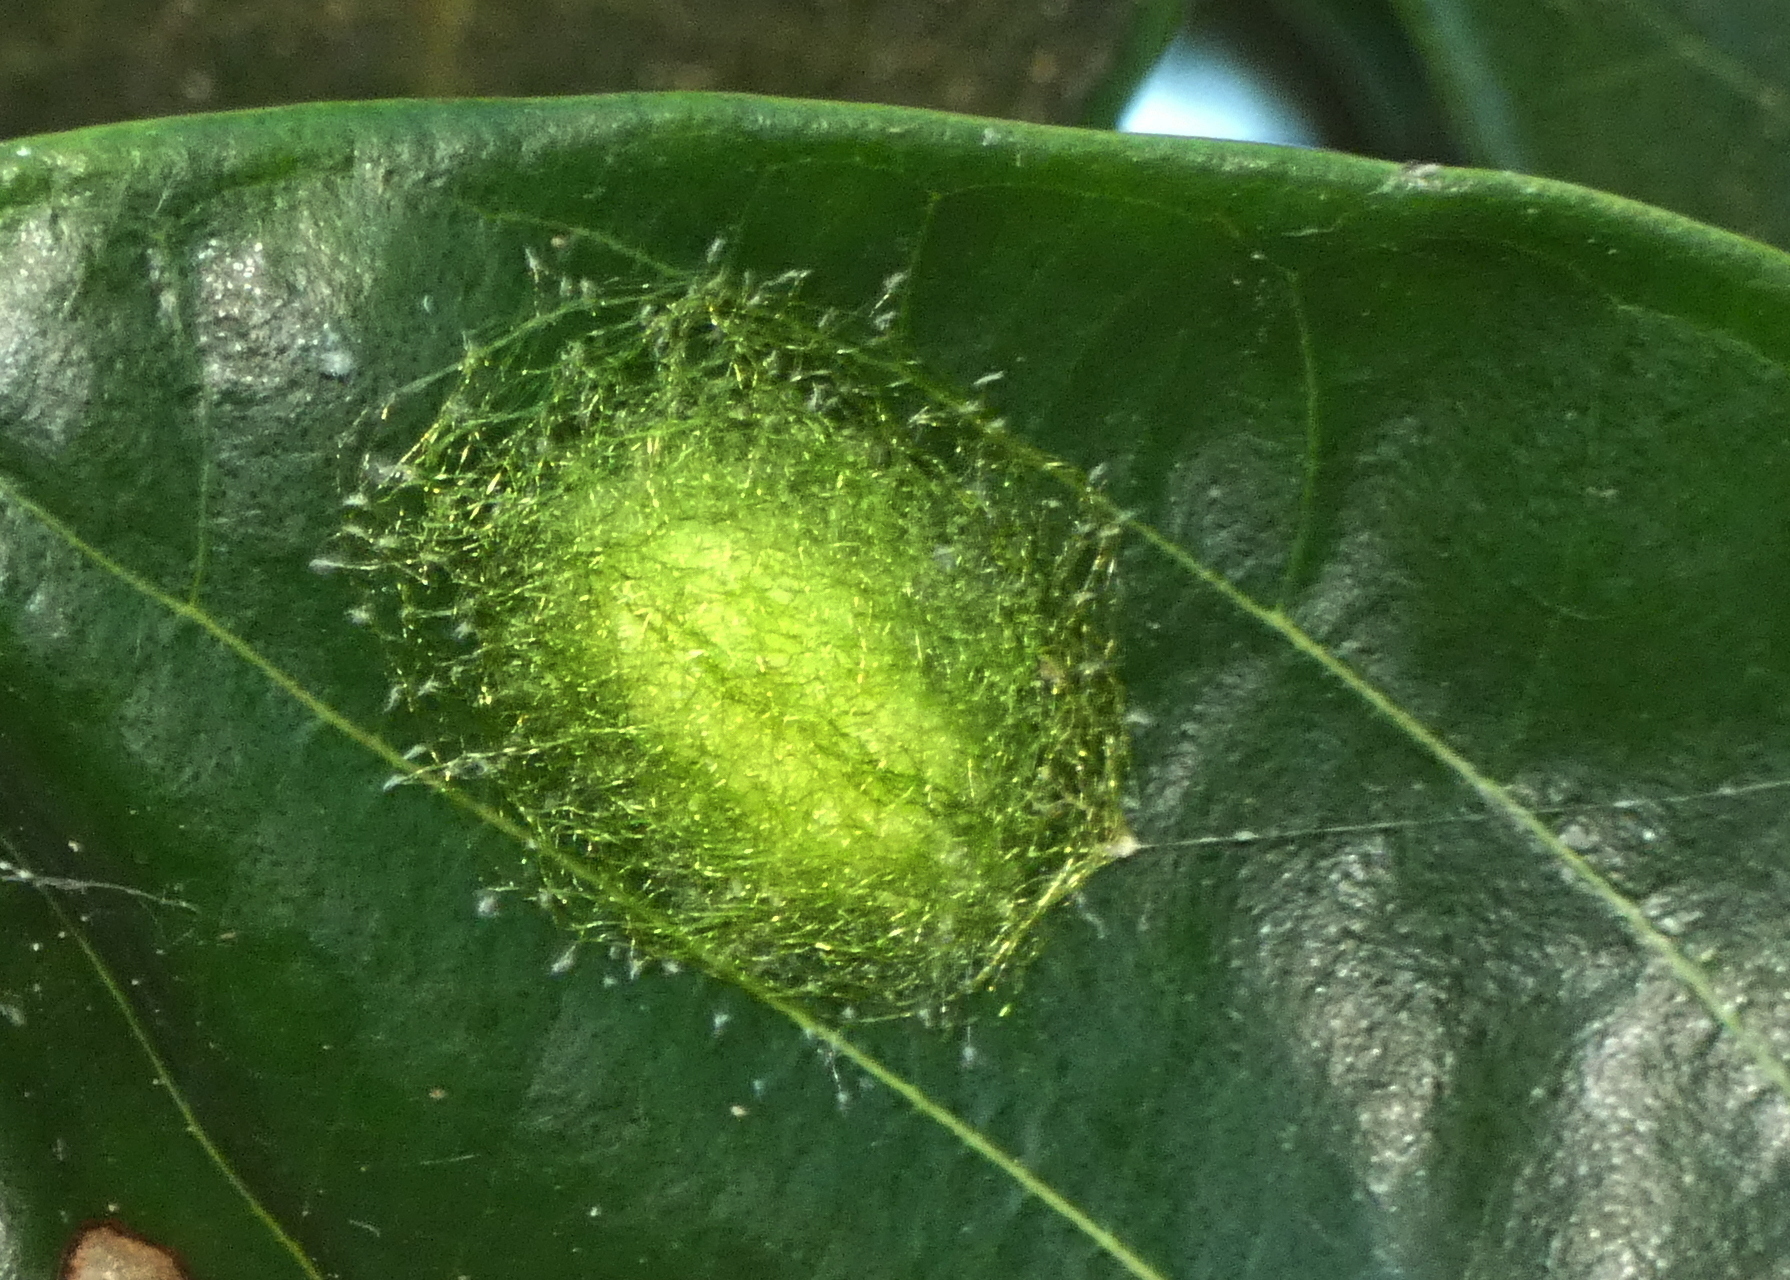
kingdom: Animalia
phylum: Arthropoda
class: Arachnida
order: Araneae
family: Araneidae
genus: Gasteracantha
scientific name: Gasteracantha cancriformis
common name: Orb weavers
